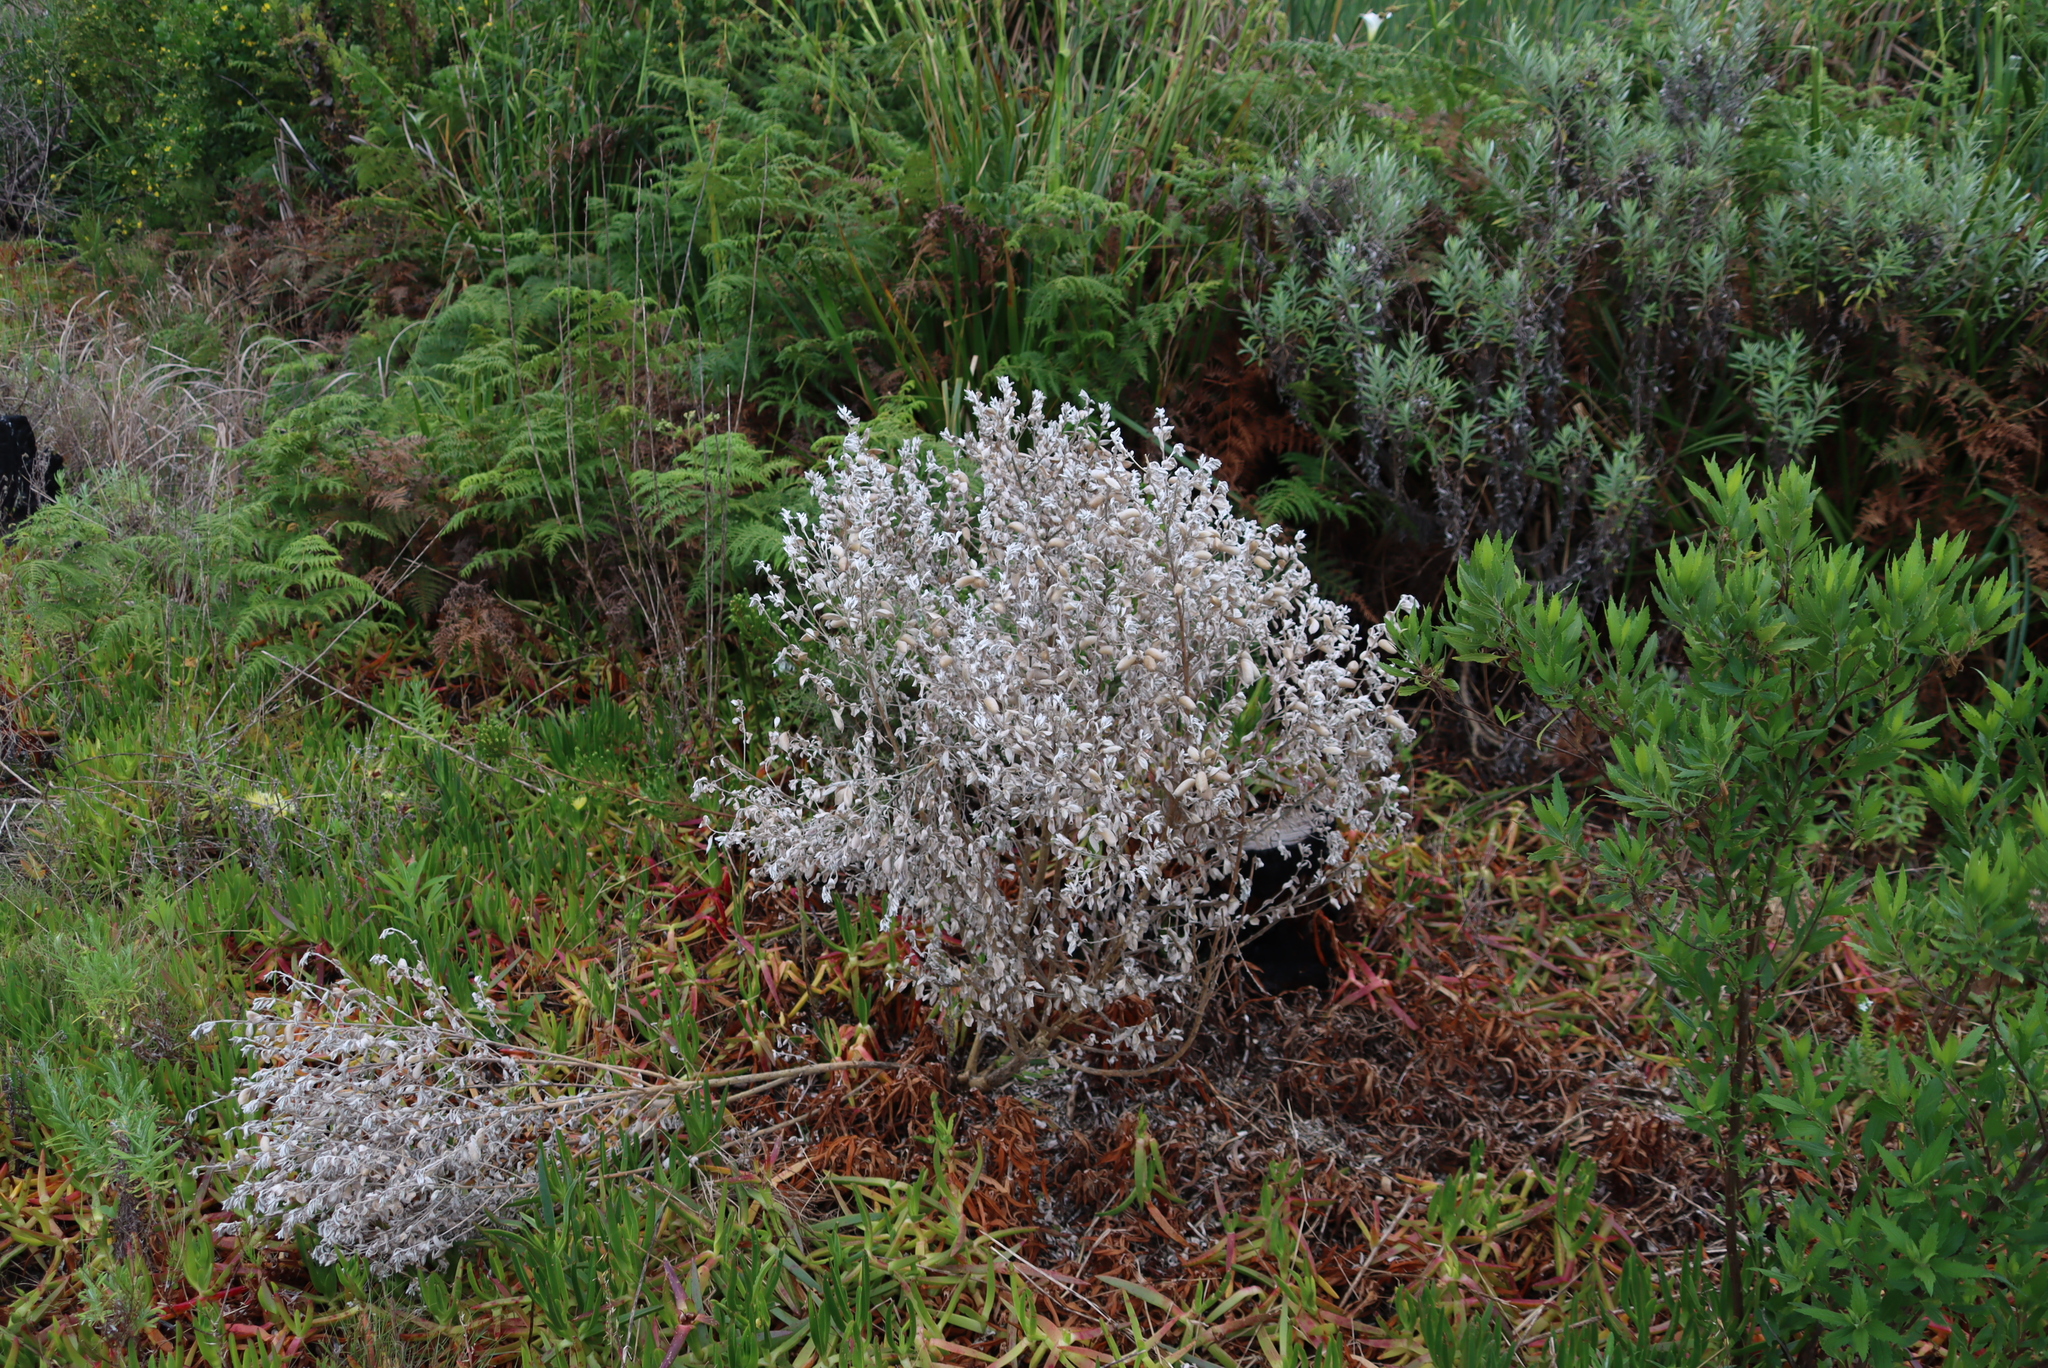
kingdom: Plantae
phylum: Tracheophyta
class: Magnoliopsida
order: Fabales
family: Fabaceae
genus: Podalyria
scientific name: Podalyria sericea
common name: Silver podalyria
